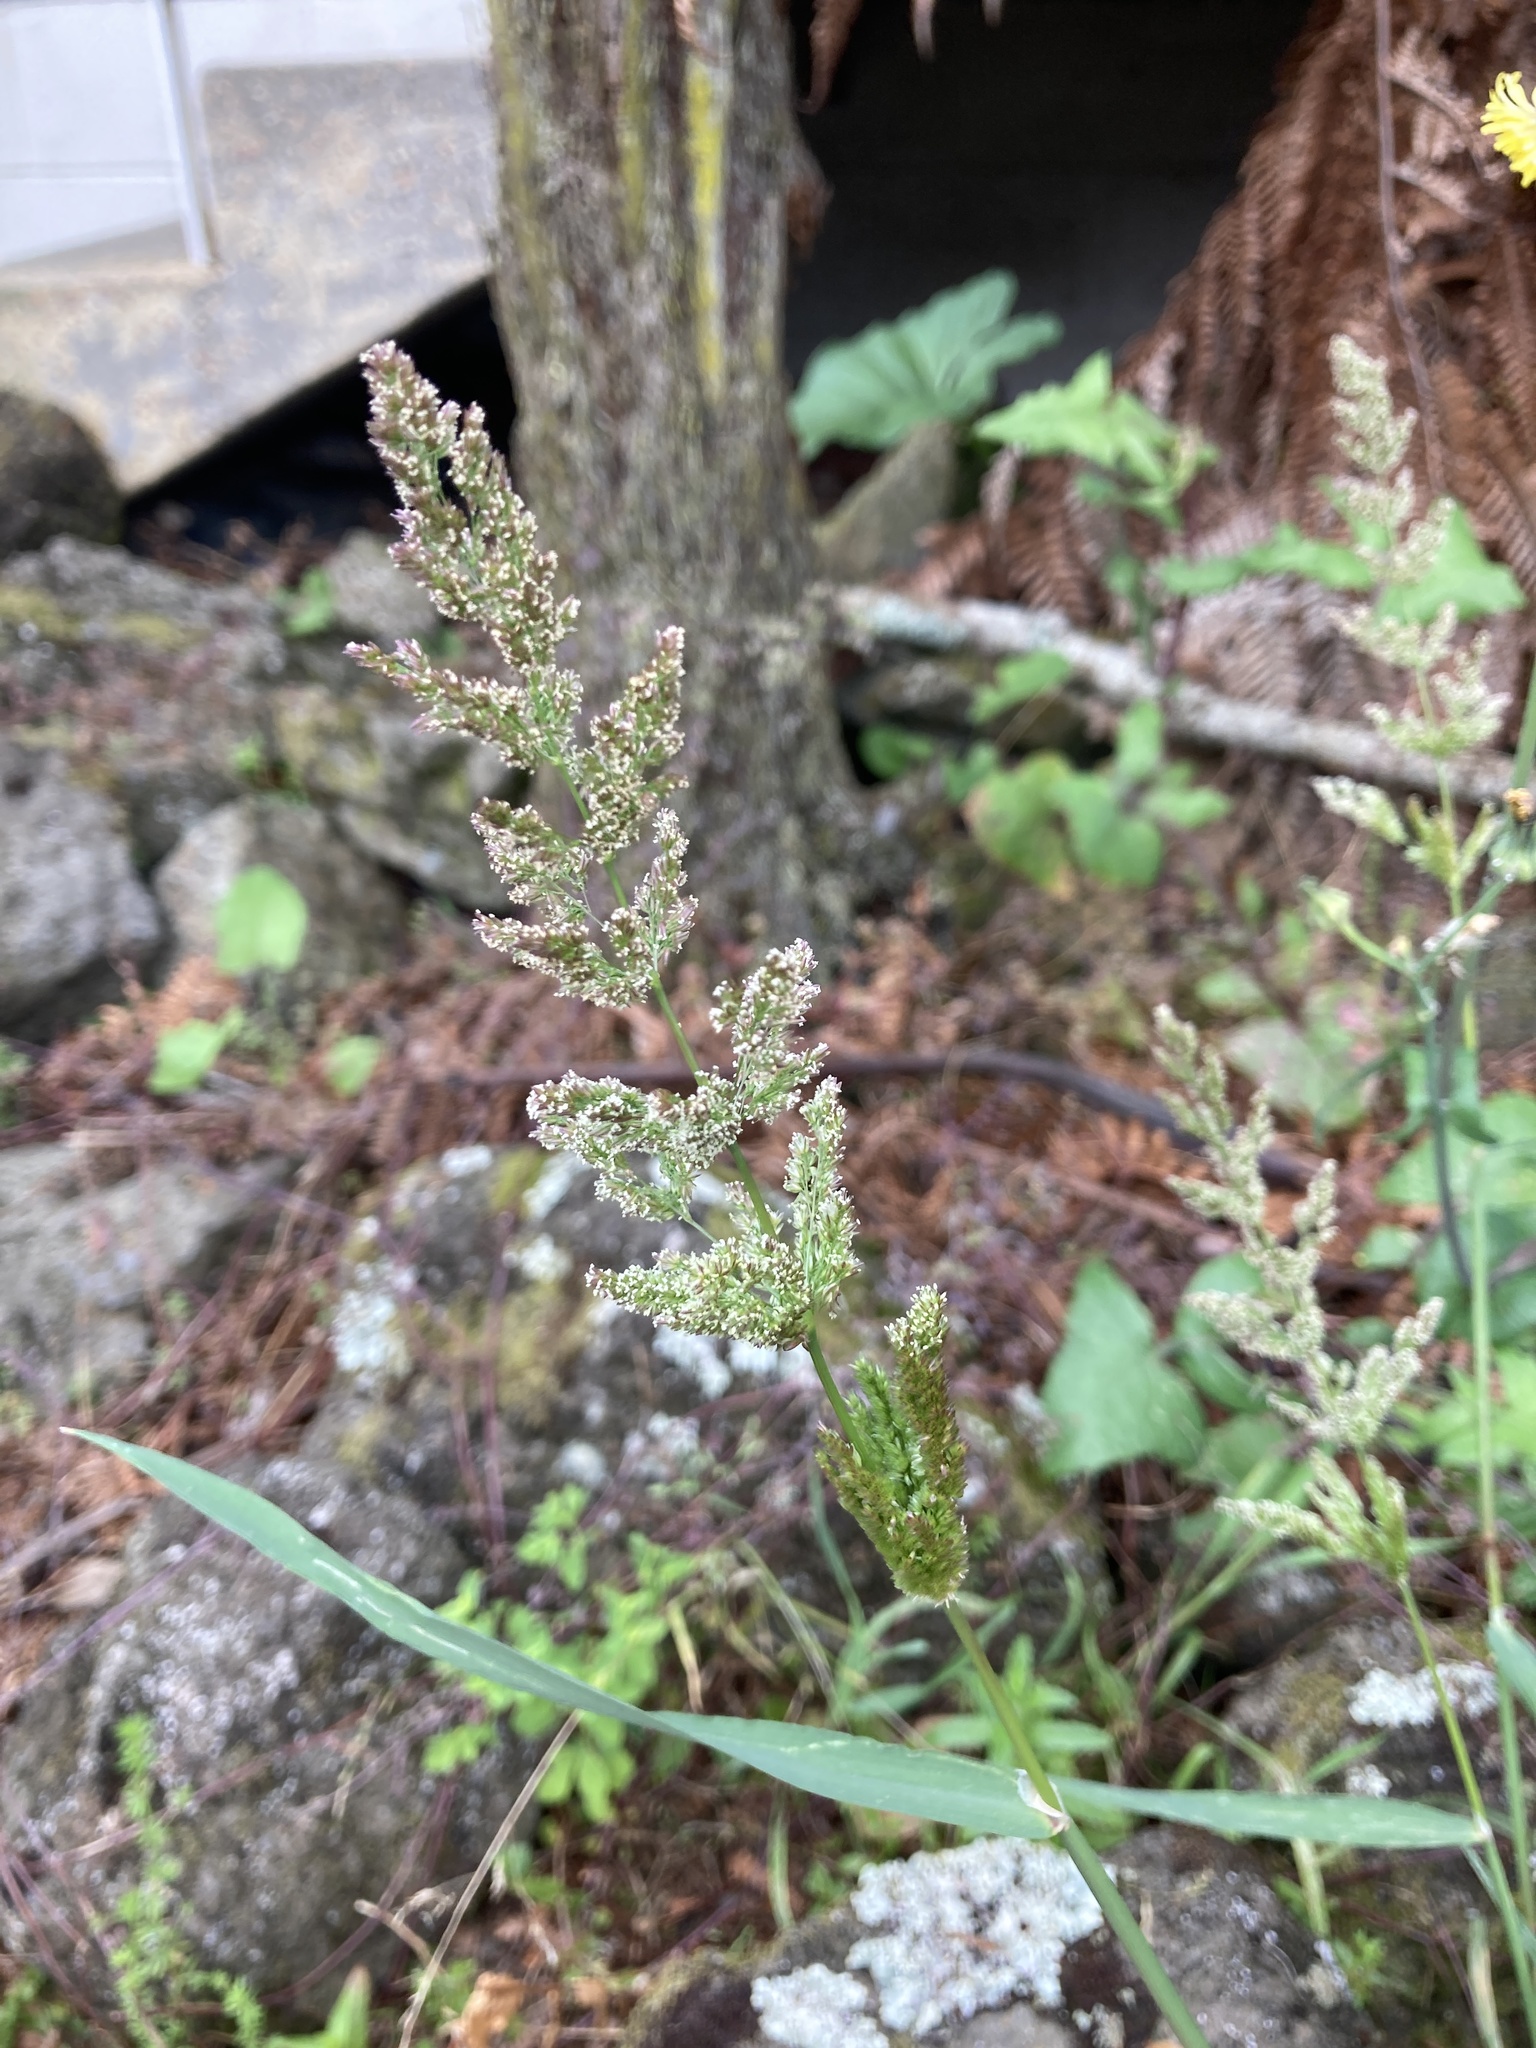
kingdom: Plantae
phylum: Tracheophyta
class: Liliopsida
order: Poales
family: Poaceae
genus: Polypogon
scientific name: Polypogon viridis
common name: Water bent
